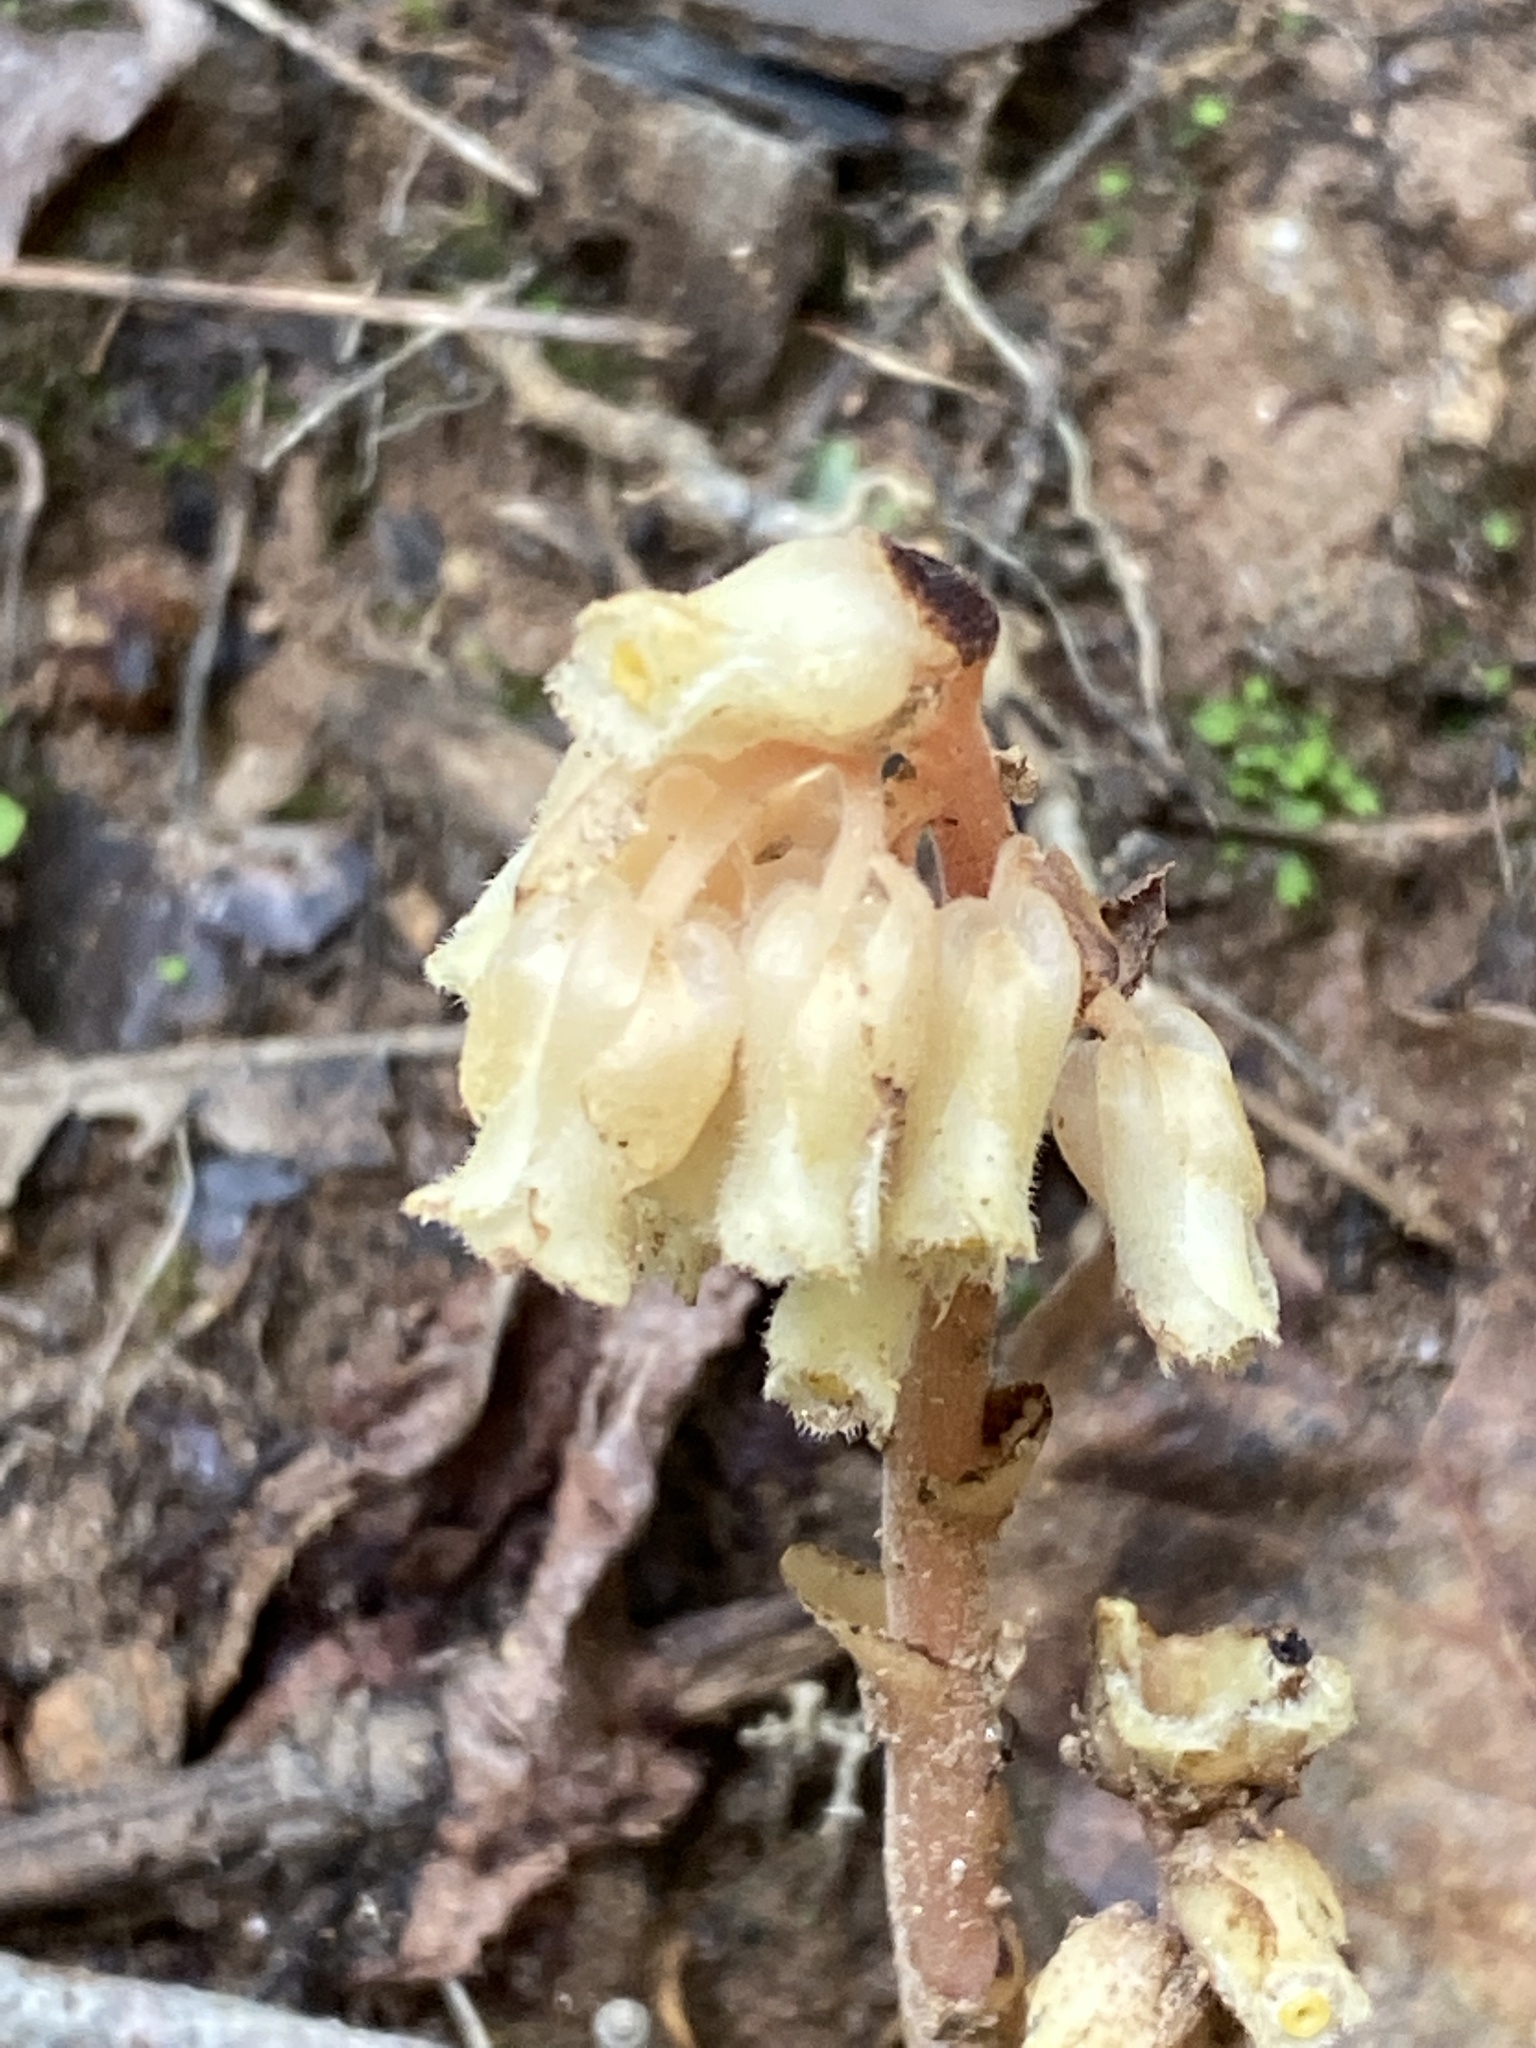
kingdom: Plantae
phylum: Tracheophyta
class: Magnoliopsida
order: Ericales
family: Ericaceae
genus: Hypopitys
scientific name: Hypopitys monotropa
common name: Yellow bird's-nest
